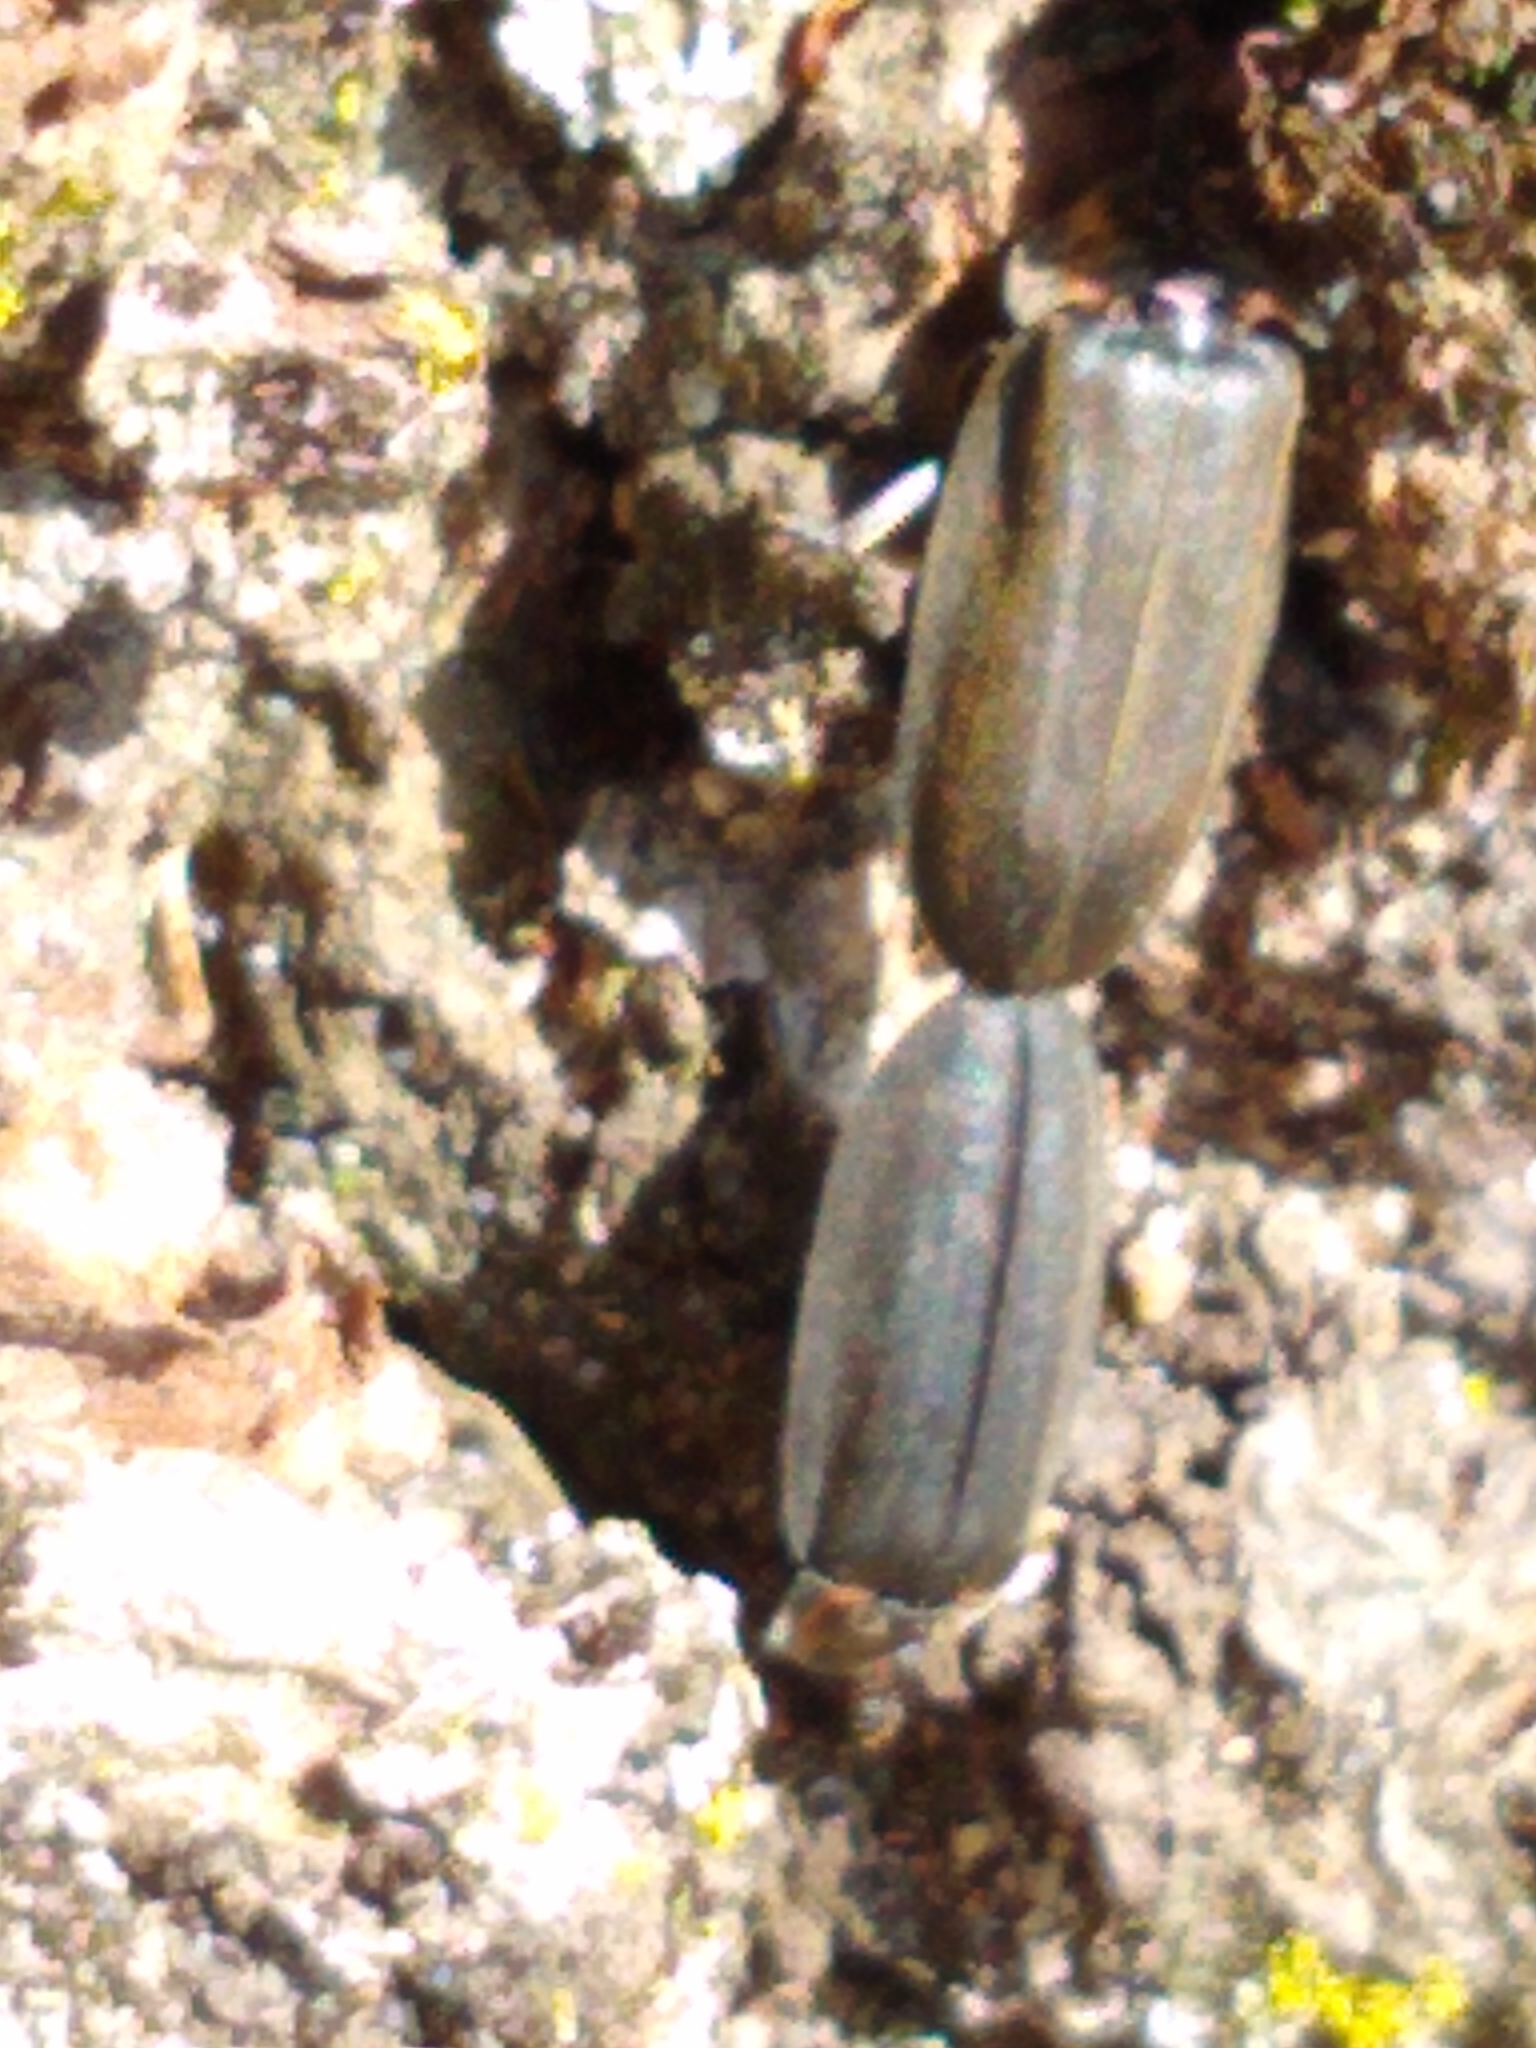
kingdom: Animalia
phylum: Arthropoda
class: Insecta
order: Coleoptera
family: Lampyridae
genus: Photinus
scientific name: Photinus corrusca
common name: Winter firefly
